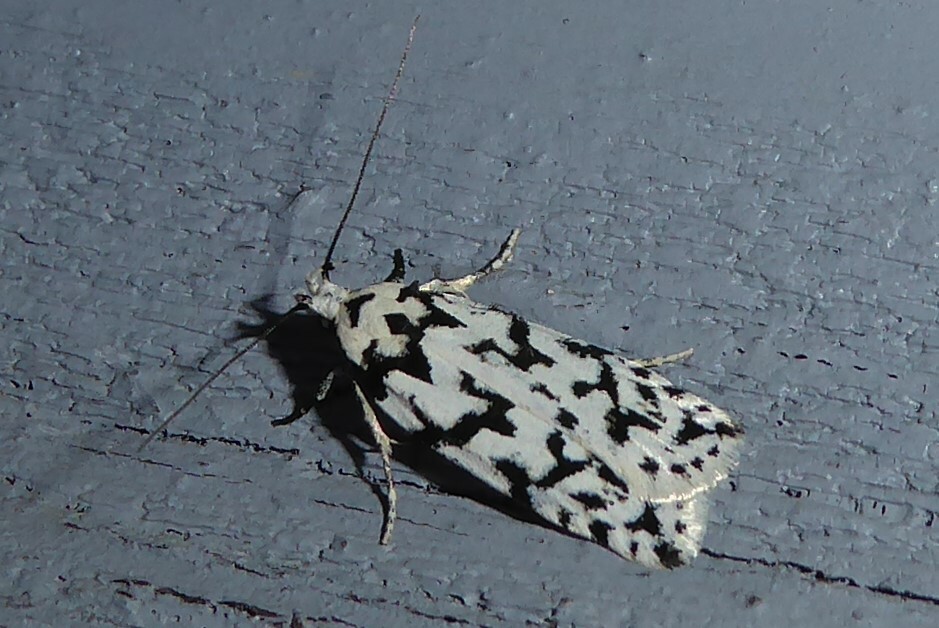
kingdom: Animalia
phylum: Arthropoda
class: Insecta
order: Lepidoptera
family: Oecophoridae
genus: Izatha
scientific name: Izatha katadiktya
